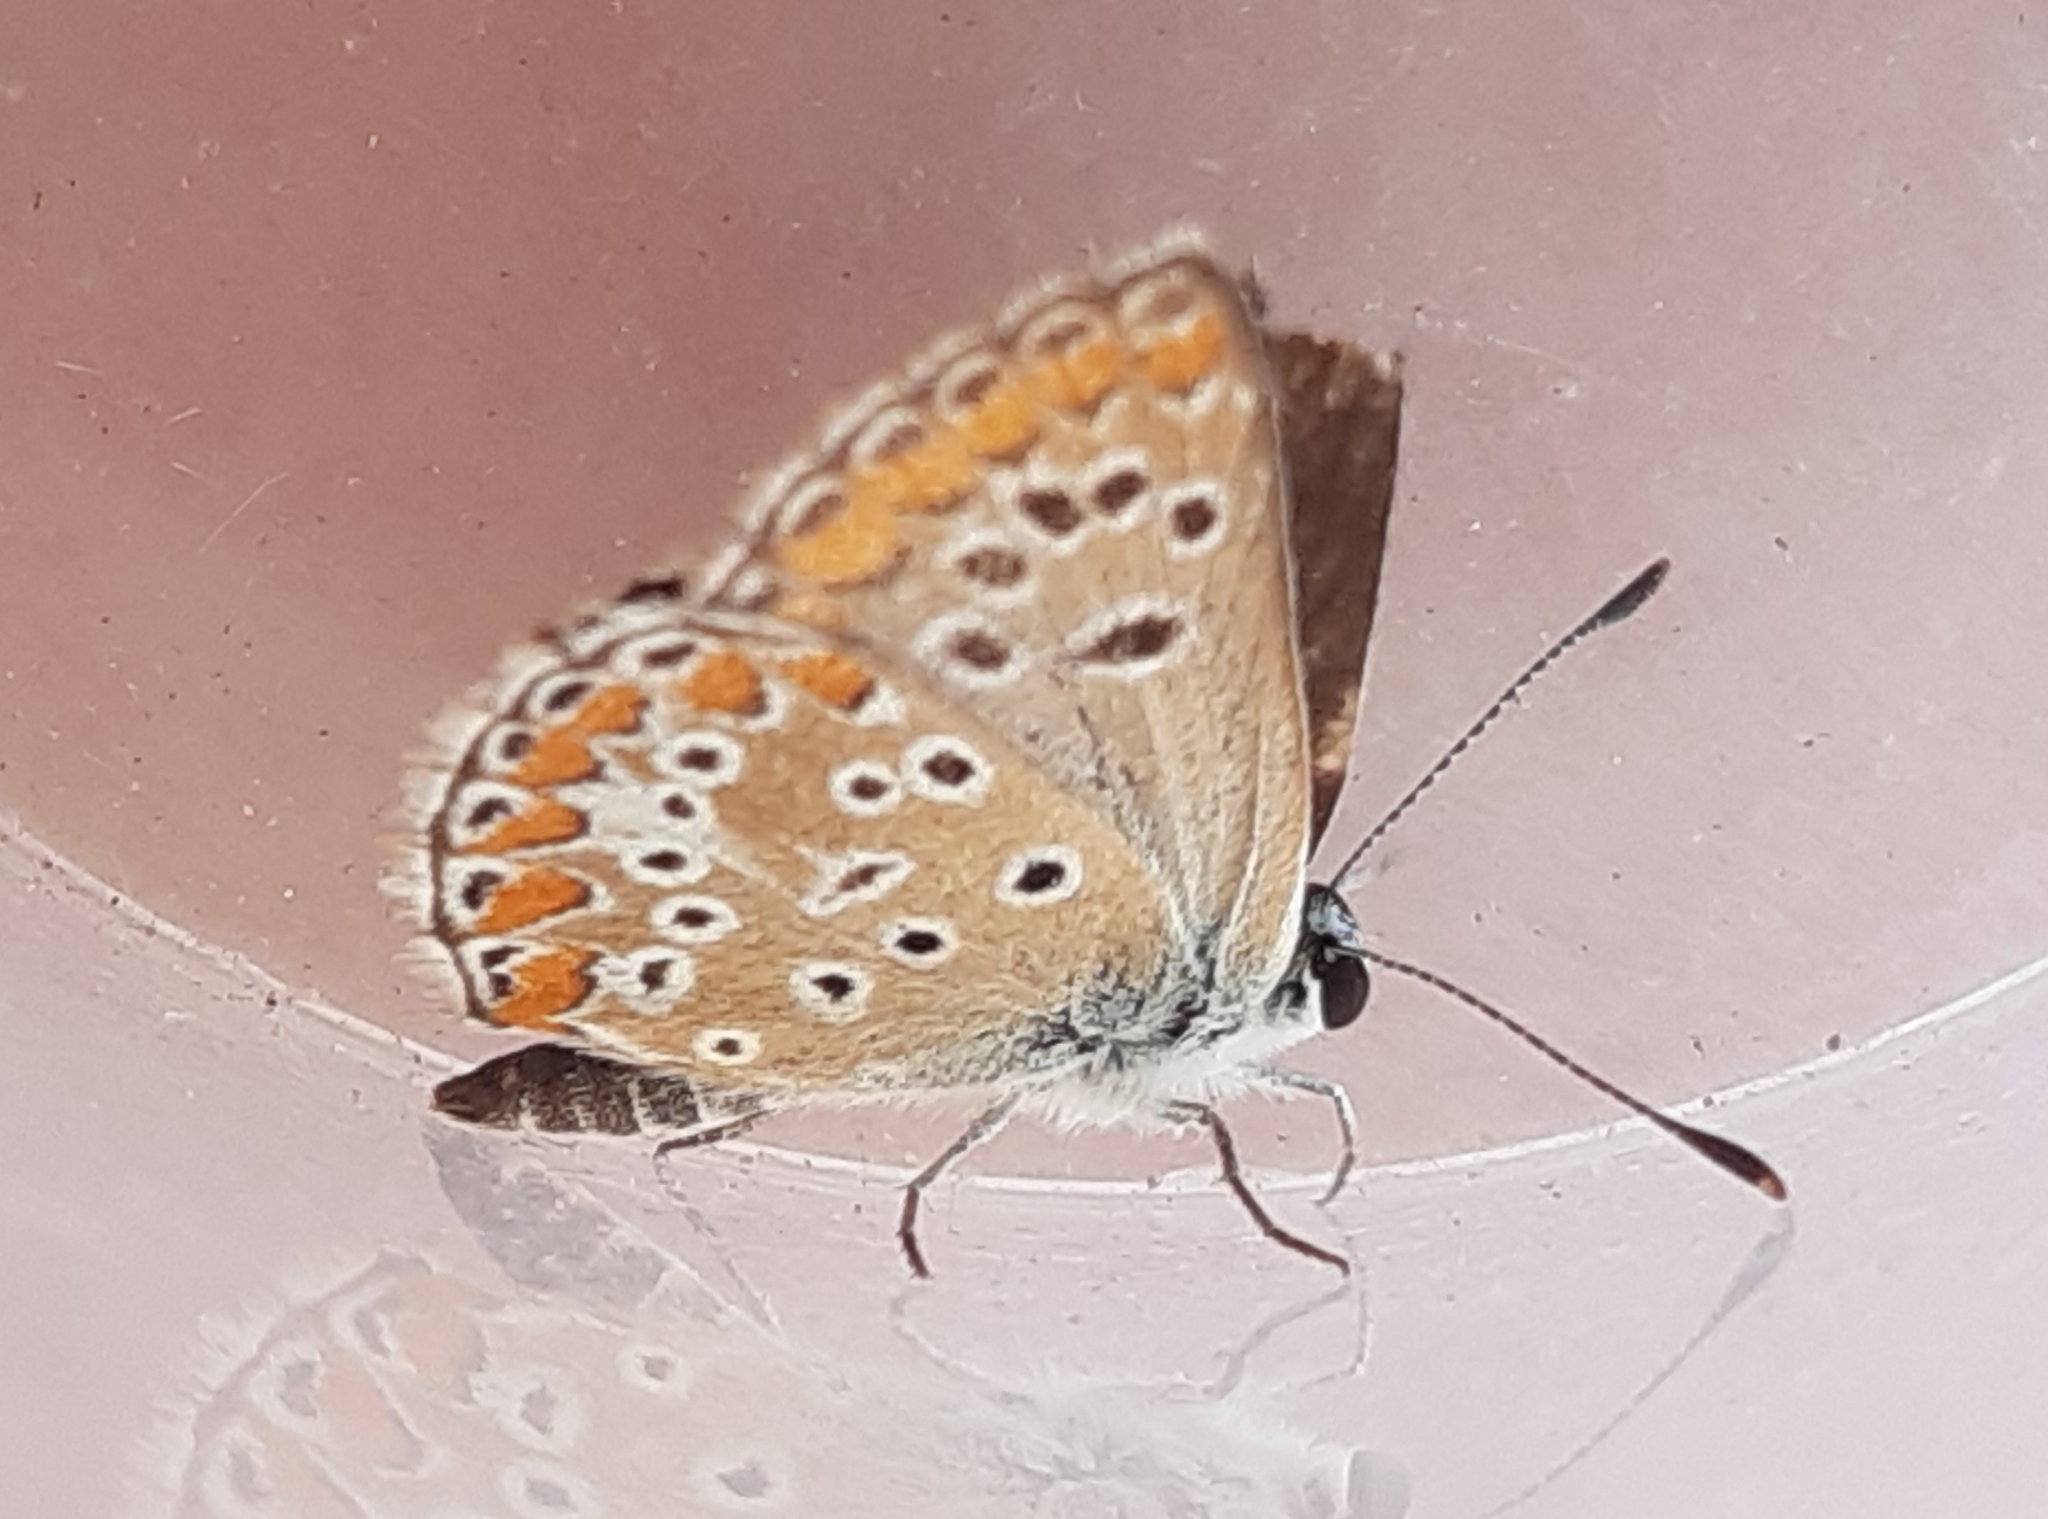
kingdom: Animalia
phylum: Arthropoda
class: Insecta
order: Lepidoptera
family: Lycaenidae
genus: Aricia
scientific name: Aricia agestis
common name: Brown argus
